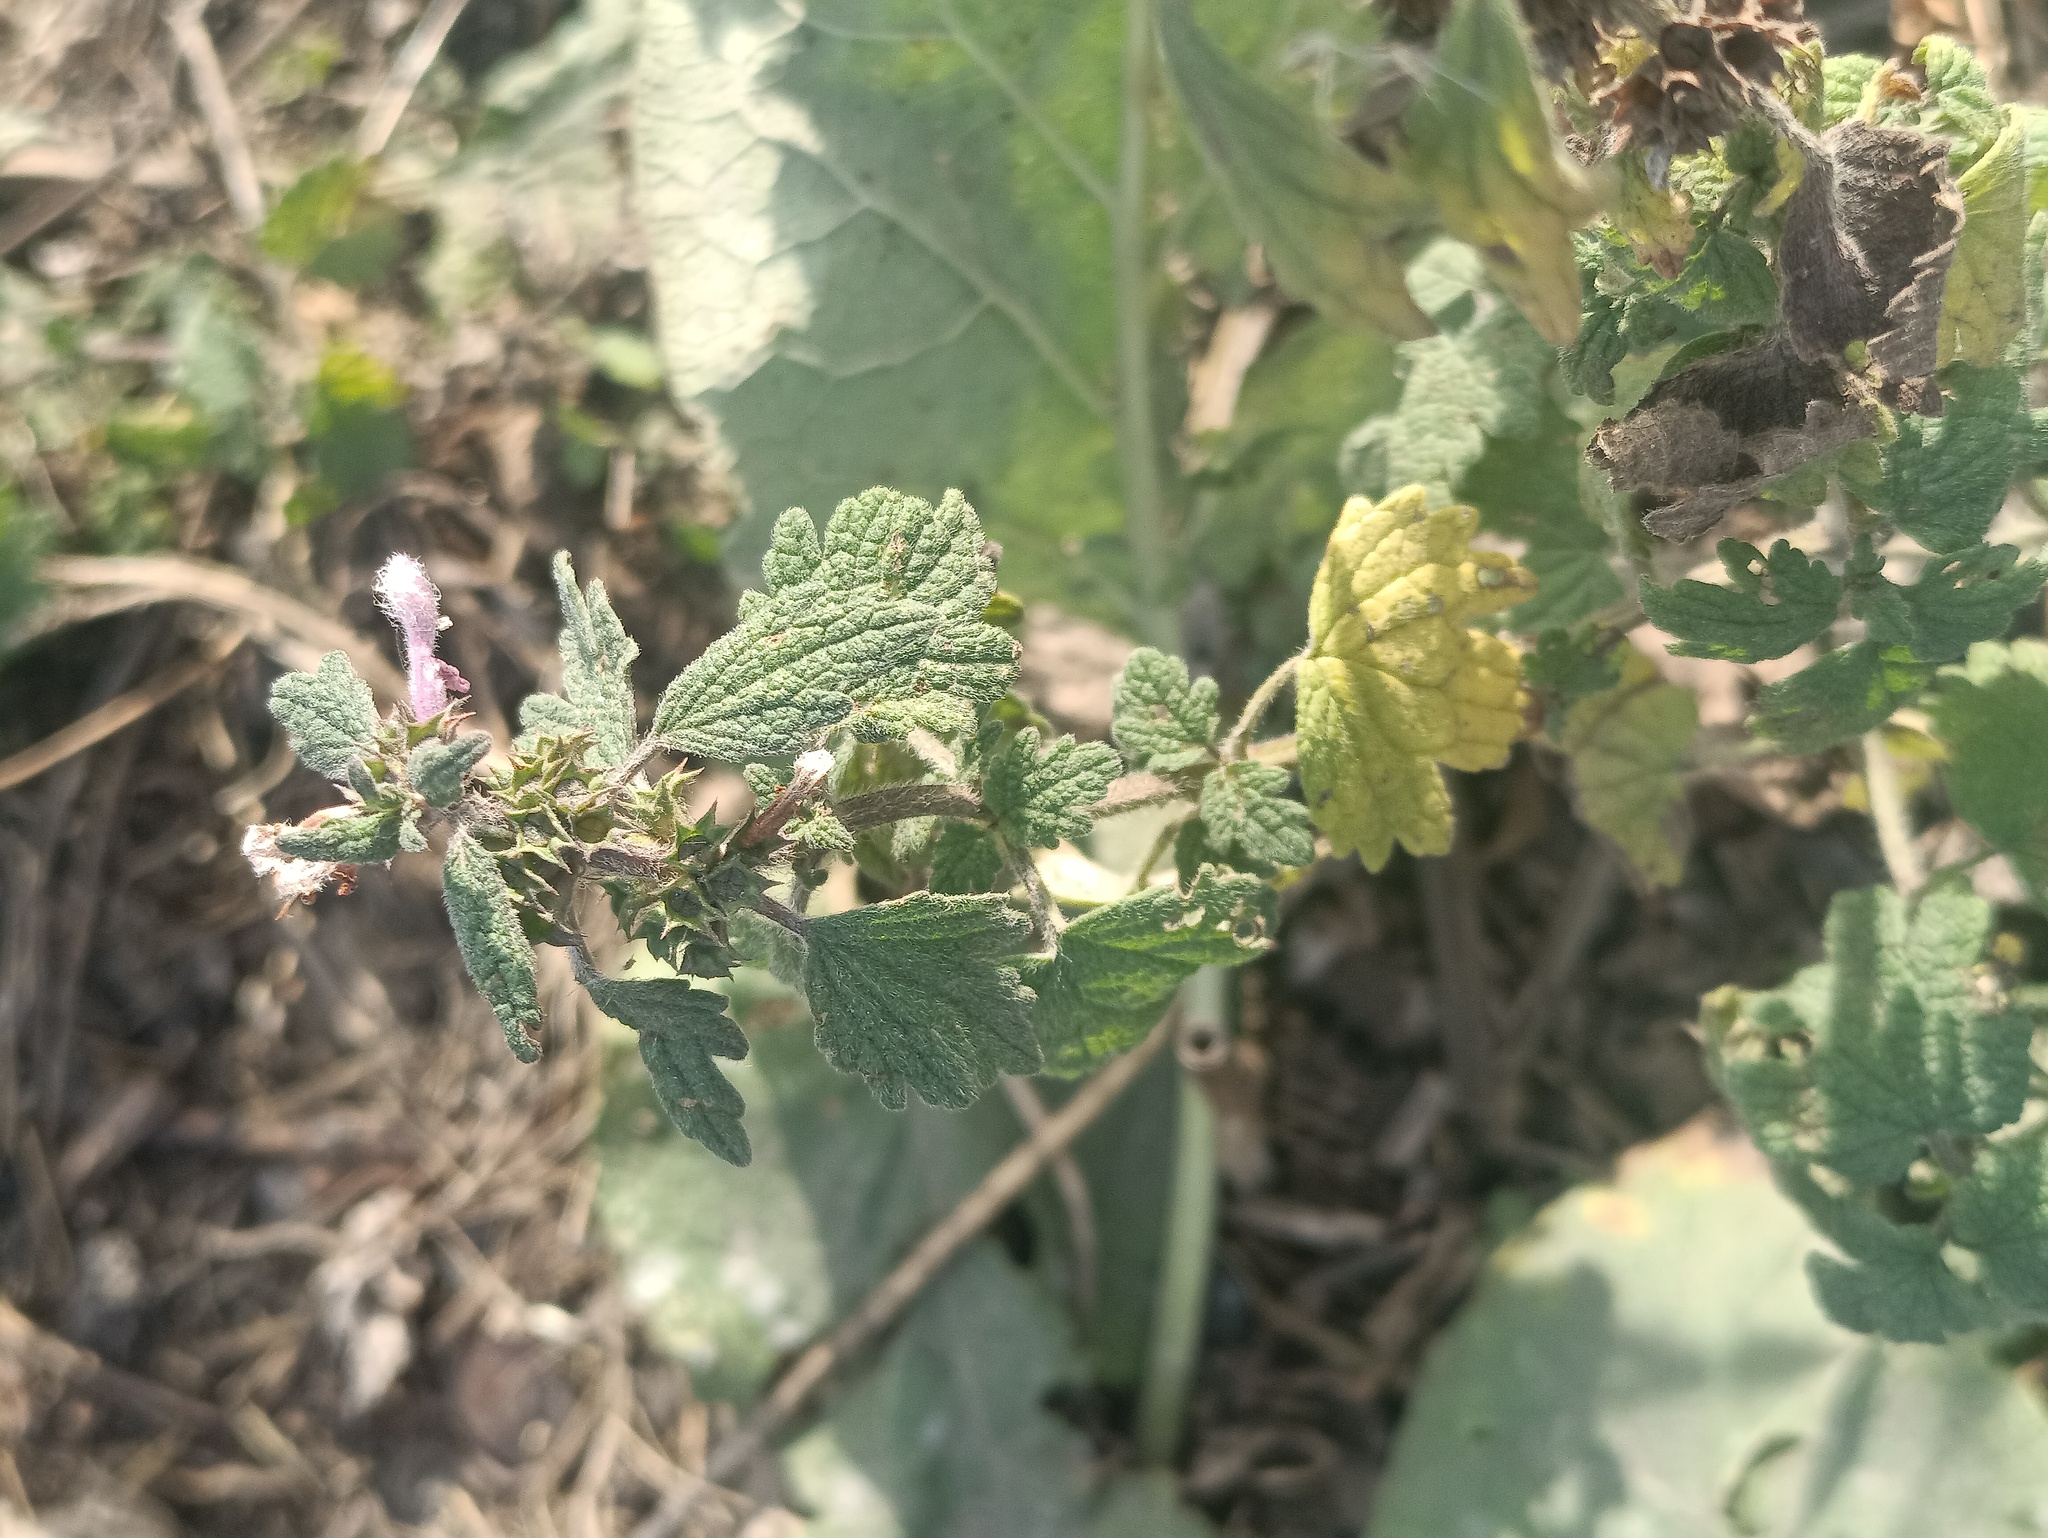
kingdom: Plantae
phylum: Tracheophyta
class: Magnoliopsida
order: Lamiales
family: Lamiaceae
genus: Leonurus
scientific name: Leonurus quinquelobatus
